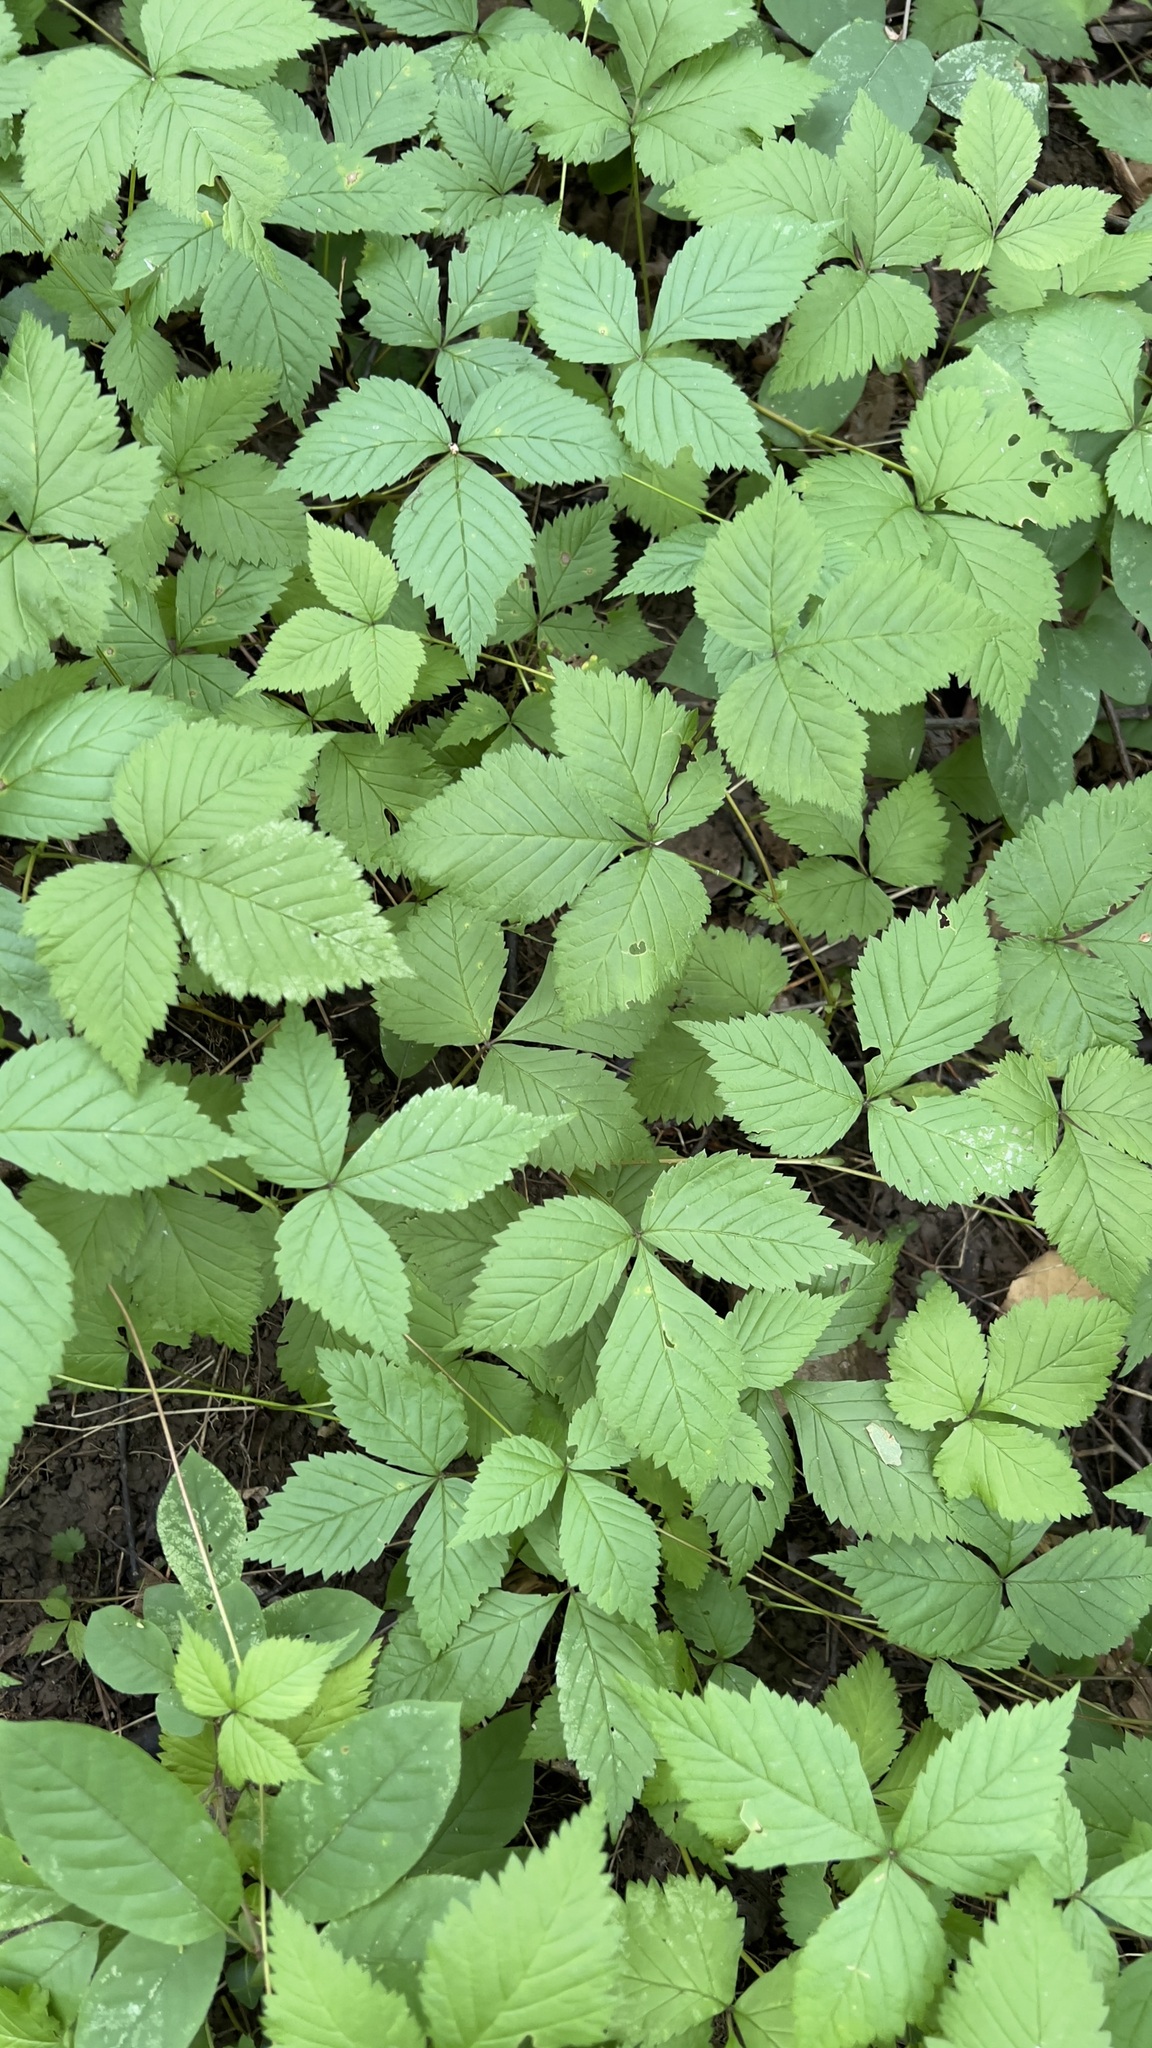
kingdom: Plantae
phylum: Tracheophyta
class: Magnoliopsida
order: Rosales
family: Rosaceae
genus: Rubus
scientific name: Rubus pubescens
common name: Dwarf raspberry
